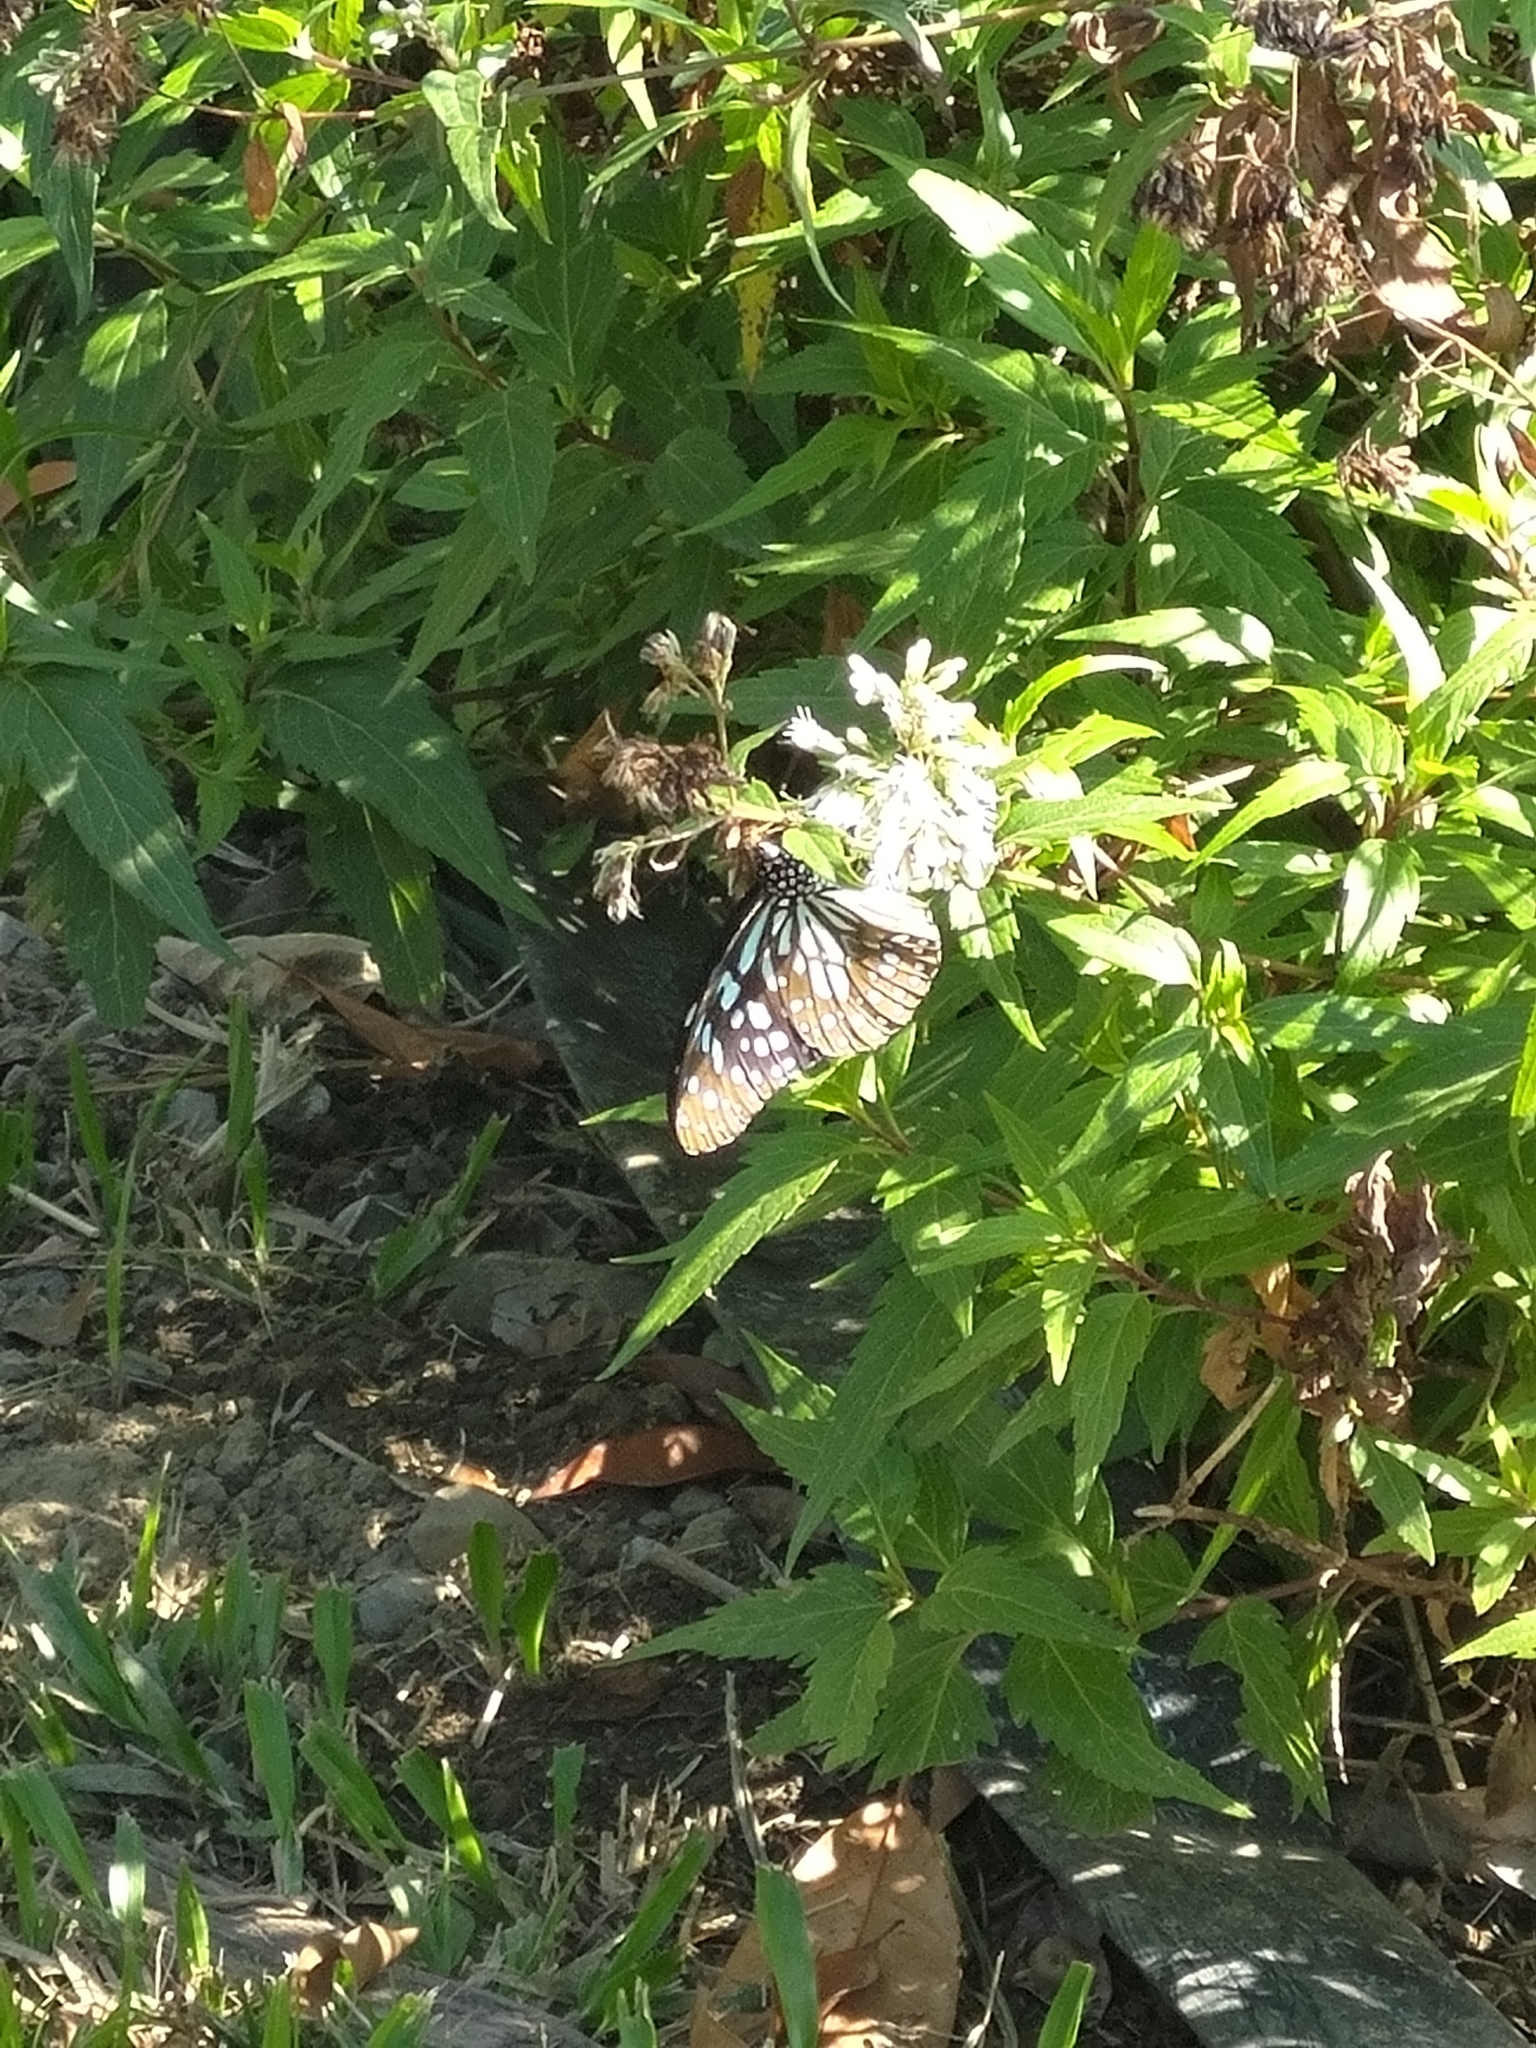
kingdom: Animalia
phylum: Arthropoda
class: Insecta
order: Lepidoptera
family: Nymphalidae
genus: Tirumala
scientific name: Tirumala limniace
